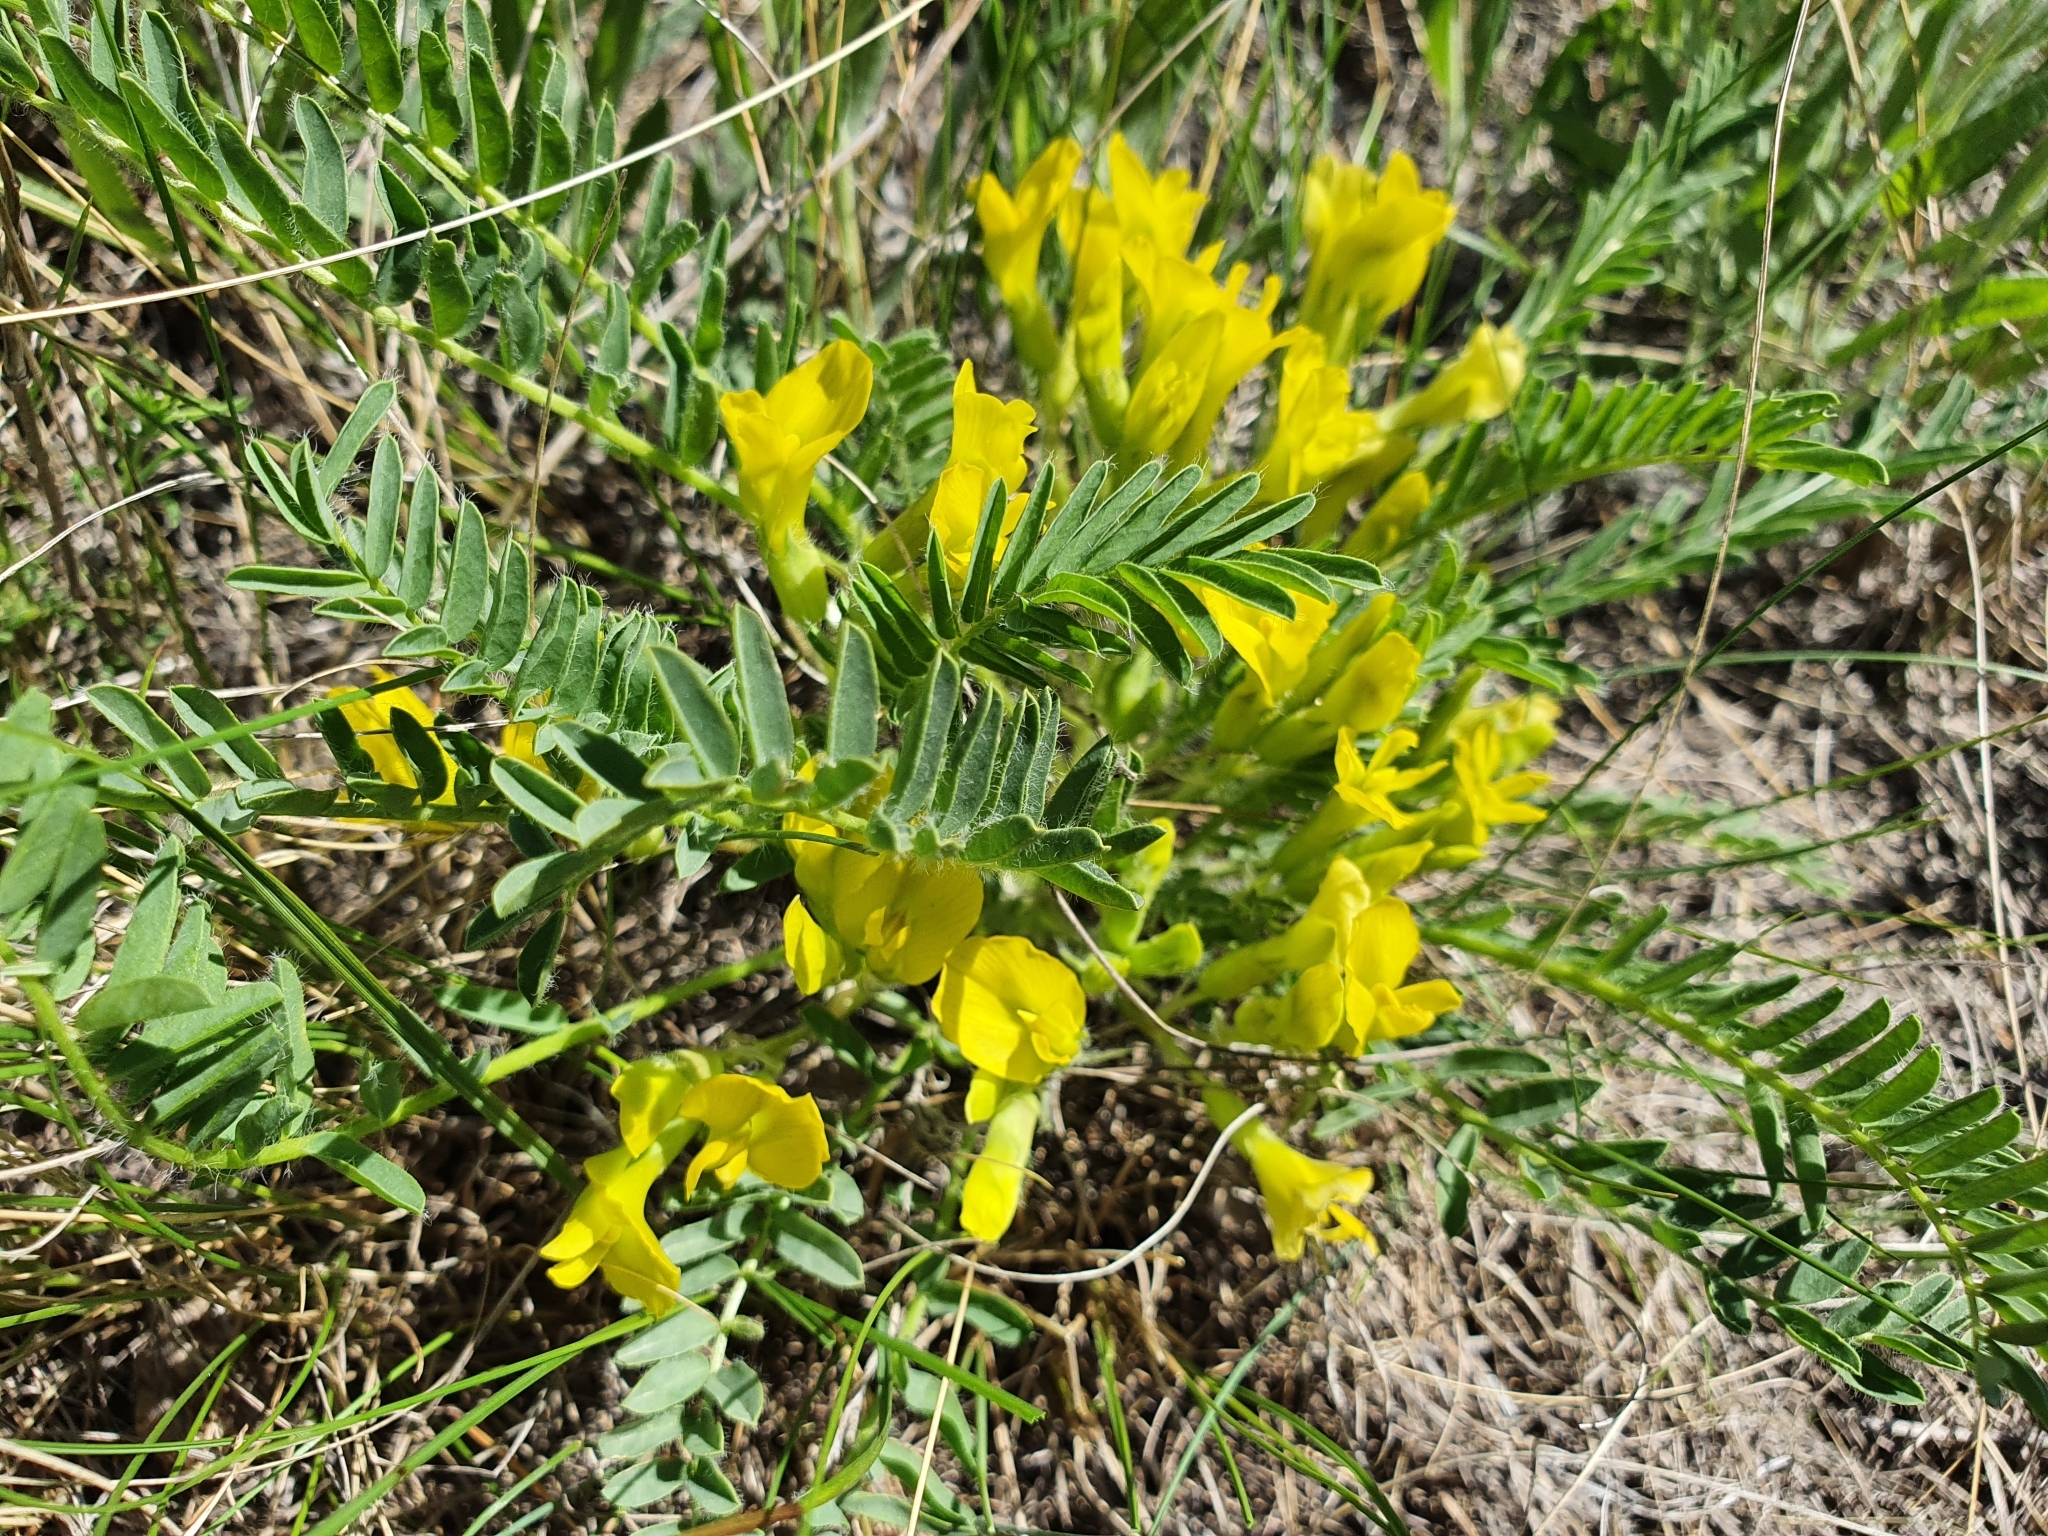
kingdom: Plantae
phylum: Tracheophyta
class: Magnoliopsida
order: Fabales
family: Fabaceae
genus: Astragalus
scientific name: Astragalus wolgensis
